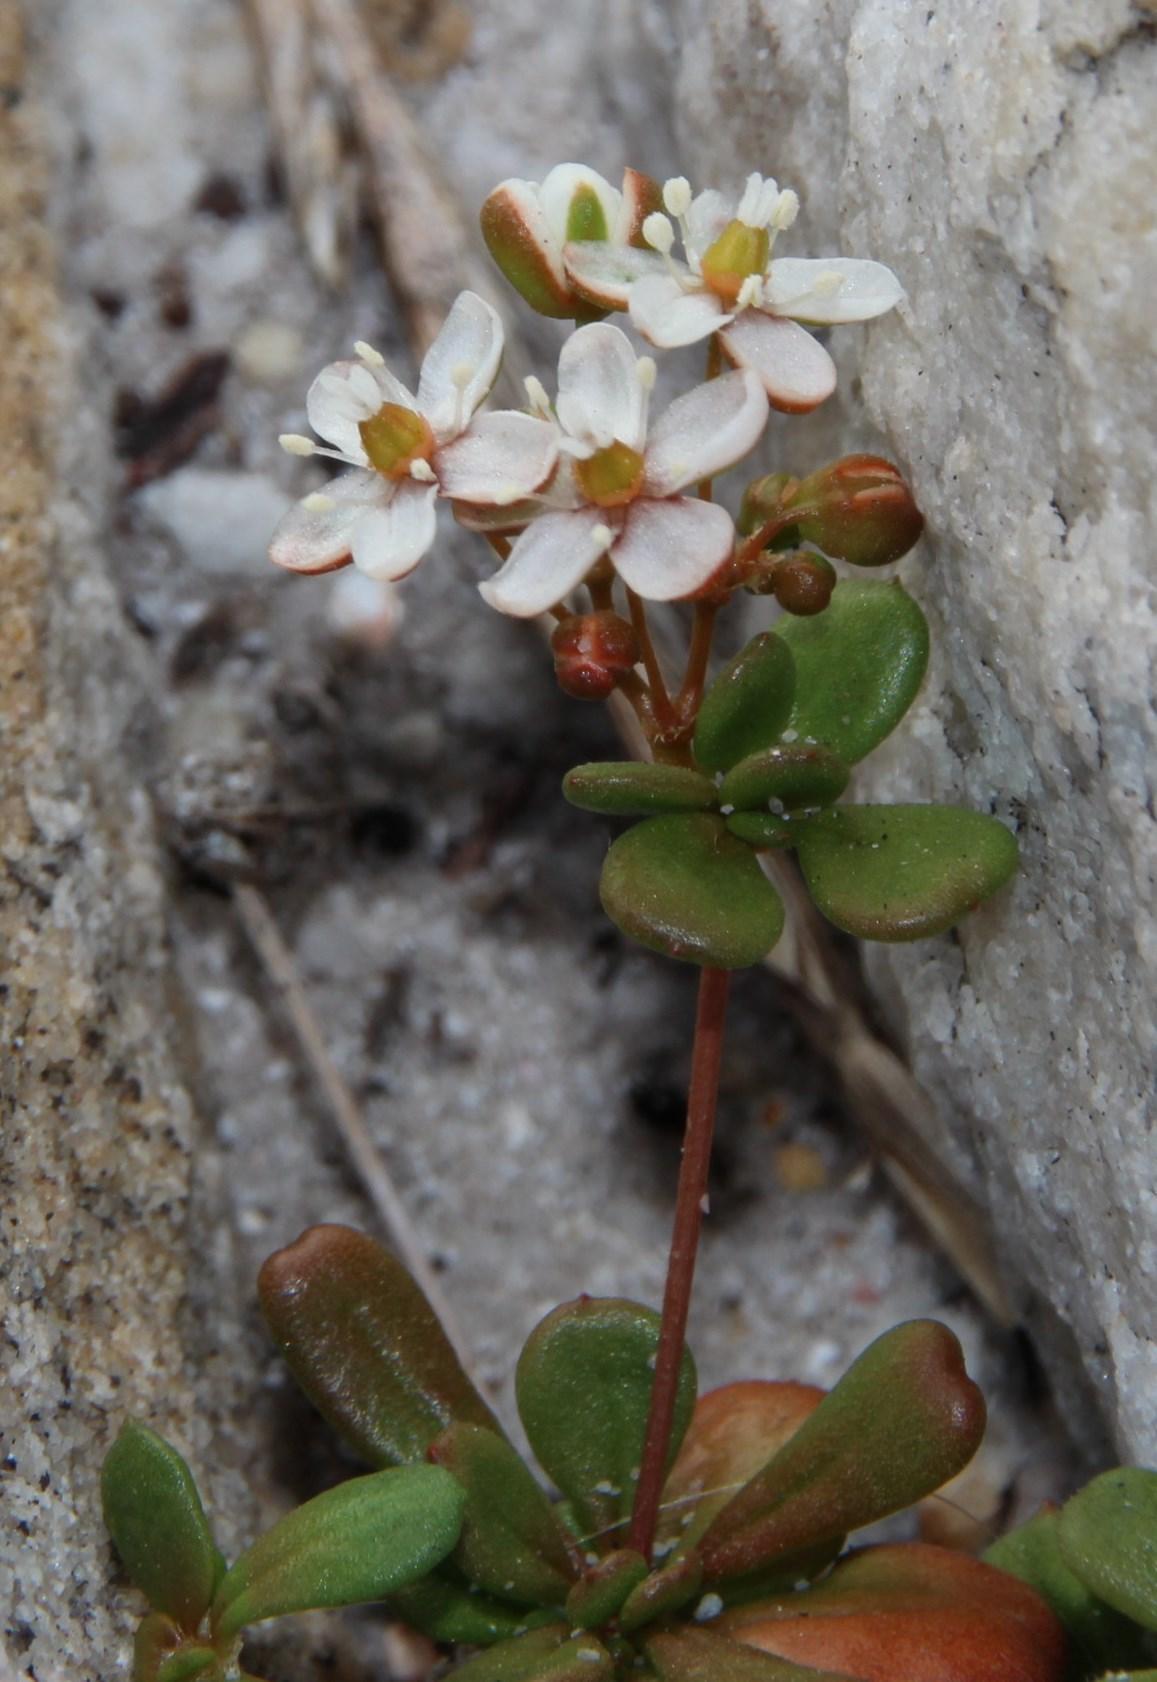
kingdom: Plantae
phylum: Tracheophyta
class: Magnoliopsida
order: Caryophyllales
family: Molluginaceae
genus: Pharnaceum
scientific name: Pharnaceum cordifolium
